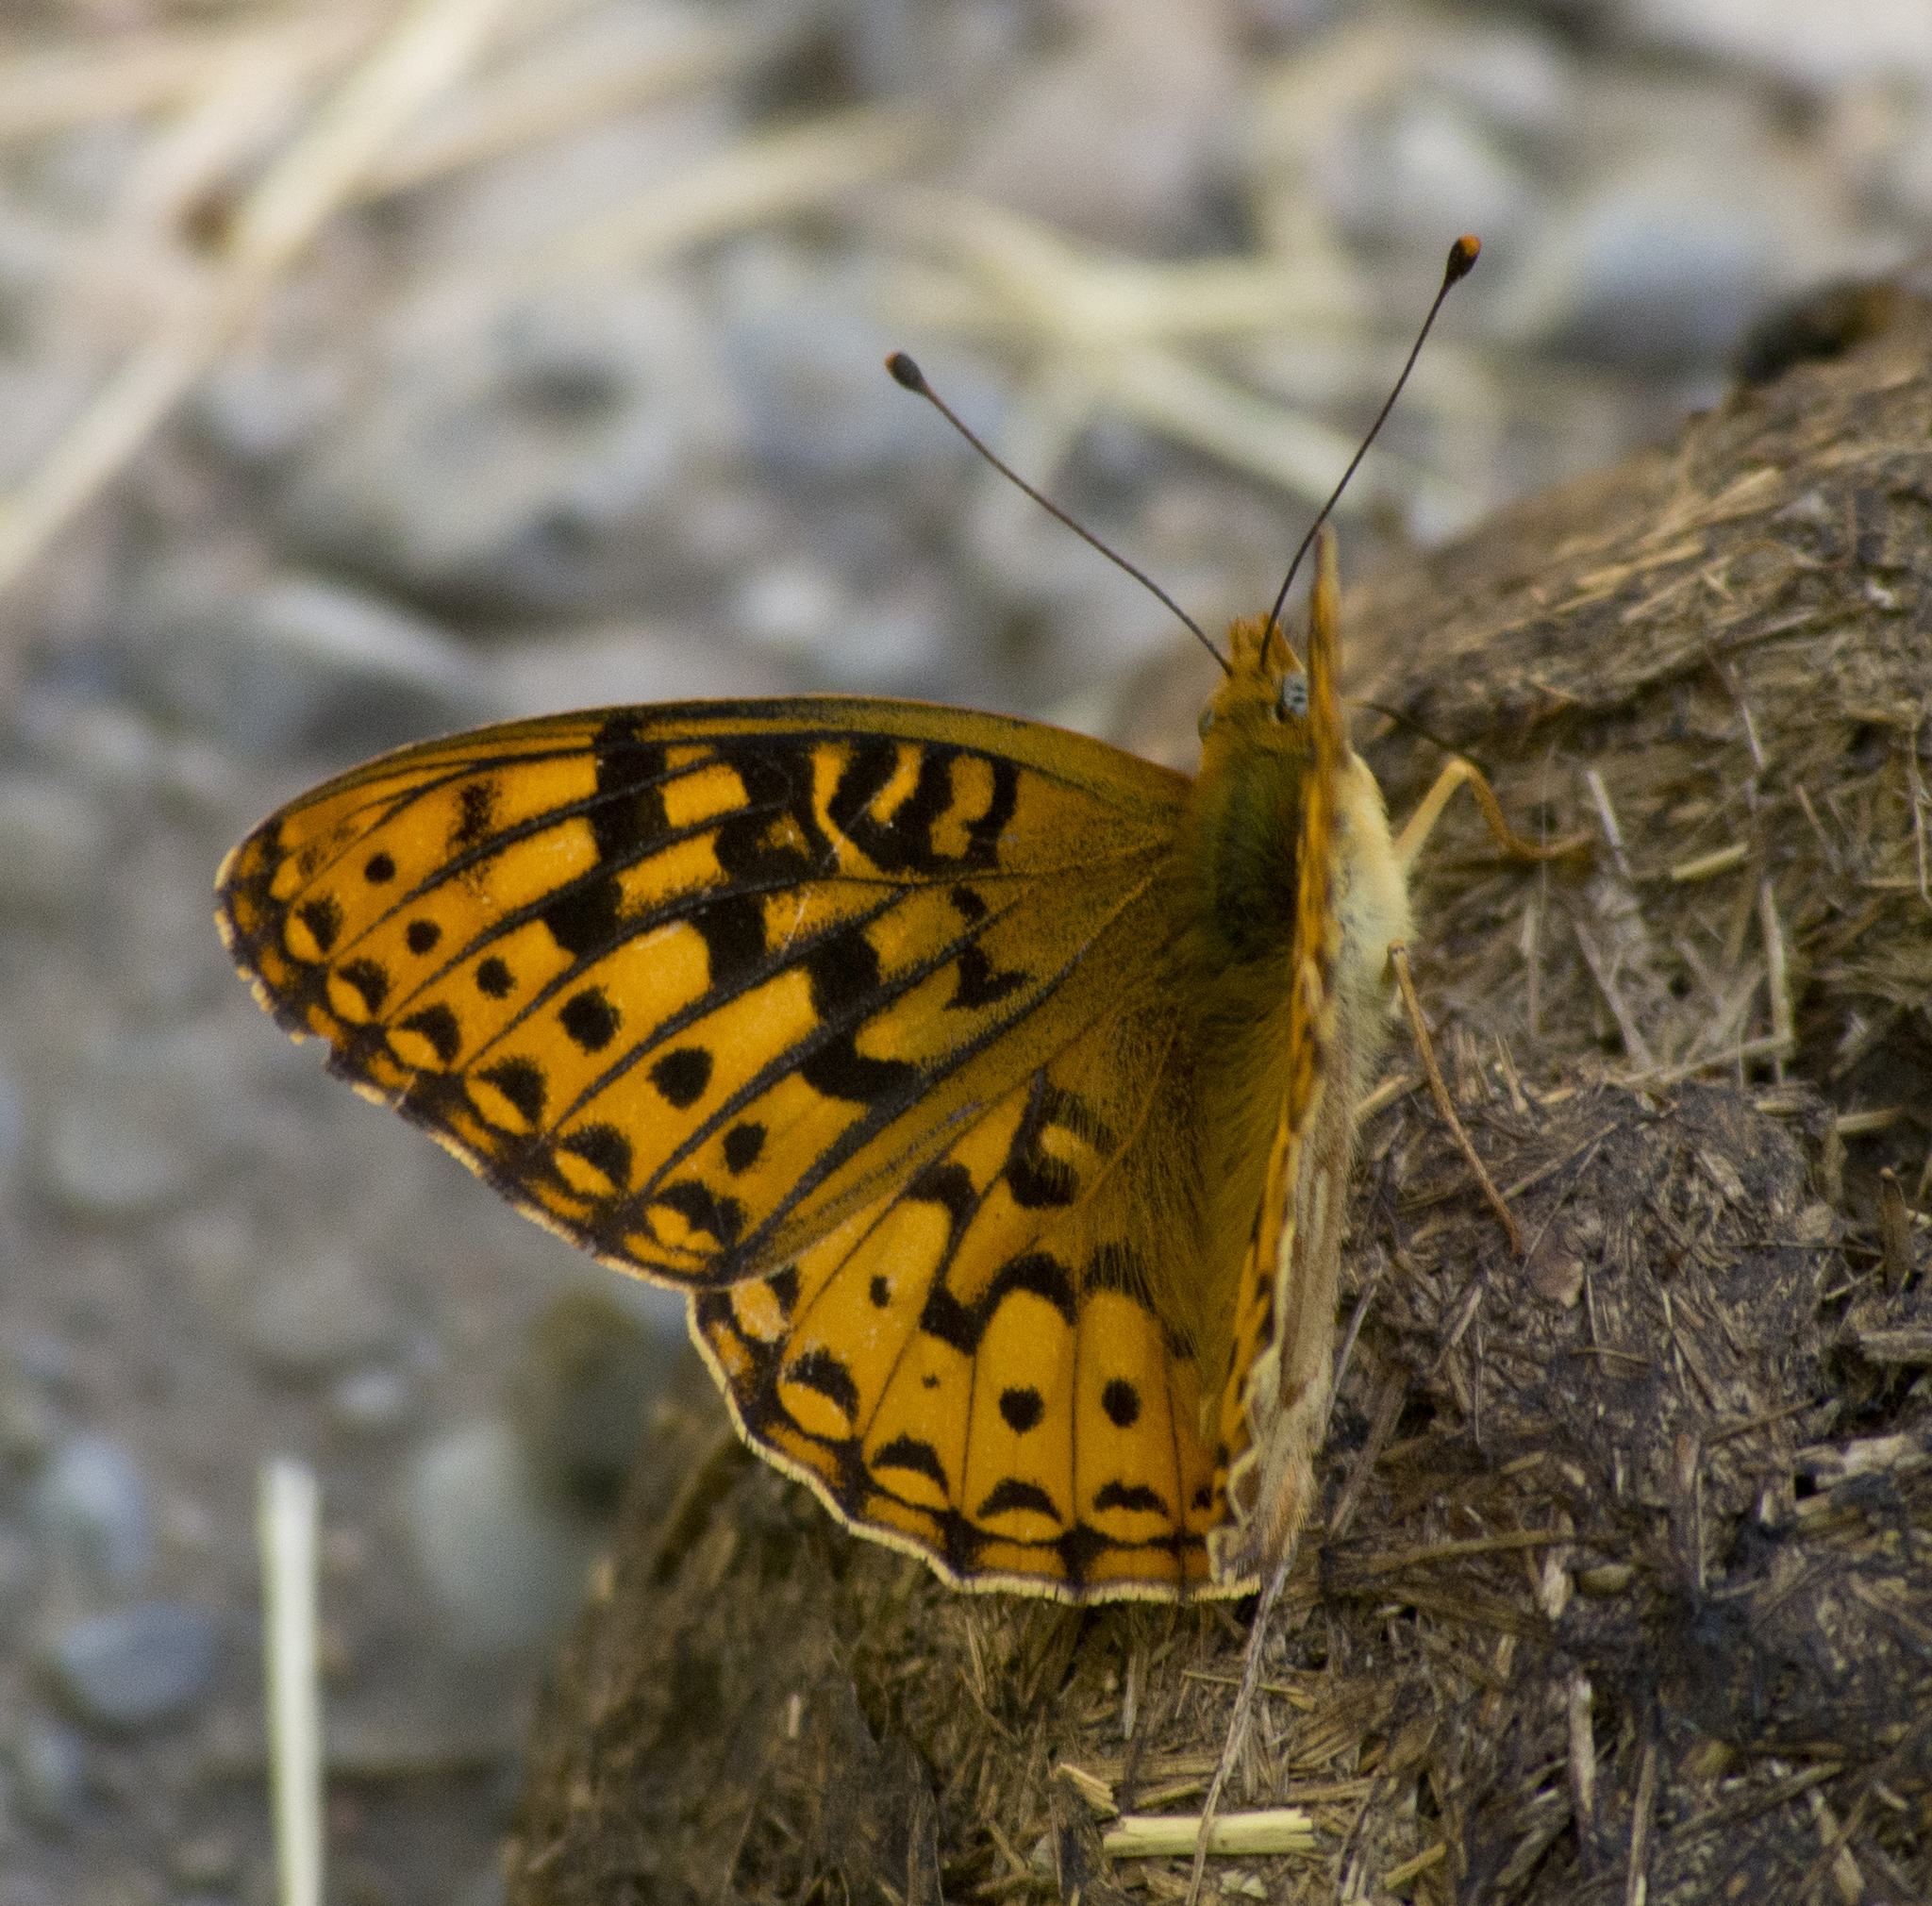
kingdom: Animalia
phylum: Arthropoda
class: Insecta
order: Lepidoptera
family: Nymphalidae
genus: Speyeria
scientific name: Speyeria atlantis
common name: Atlantis fritillary
